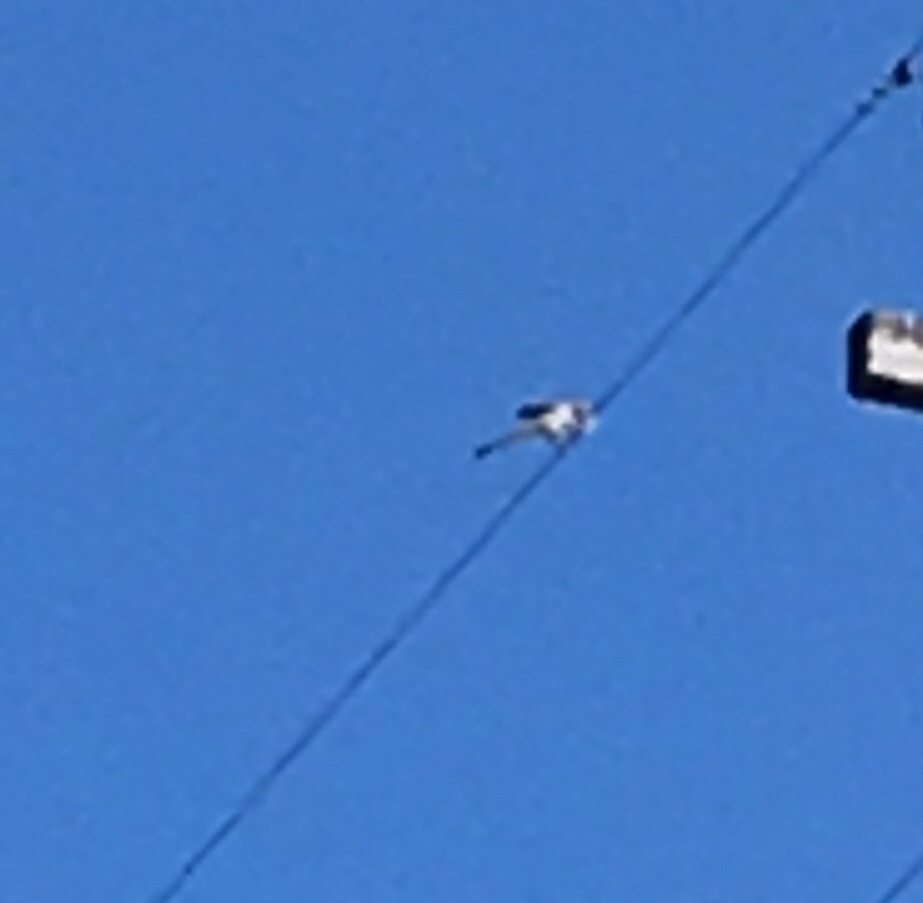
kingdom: Animalia
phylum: Chordata
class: Aves
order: Passeriformes
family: Mimidae
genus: Mimus
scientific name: Mimus polyglottos
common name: Northern mockingbird
